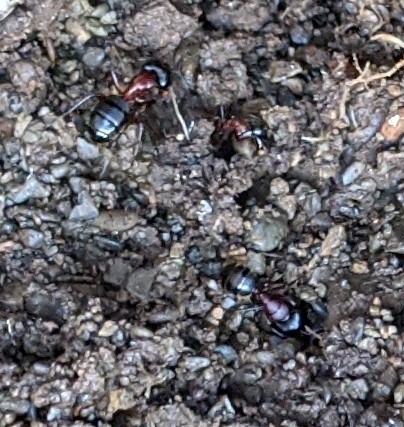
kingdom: Animalia
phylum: Arthropoda
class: Insecta
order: Hymenoptera
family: Formicidae
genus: Camponotus
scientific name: Camponotus novaeboracensis
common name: New york carpenter ant
